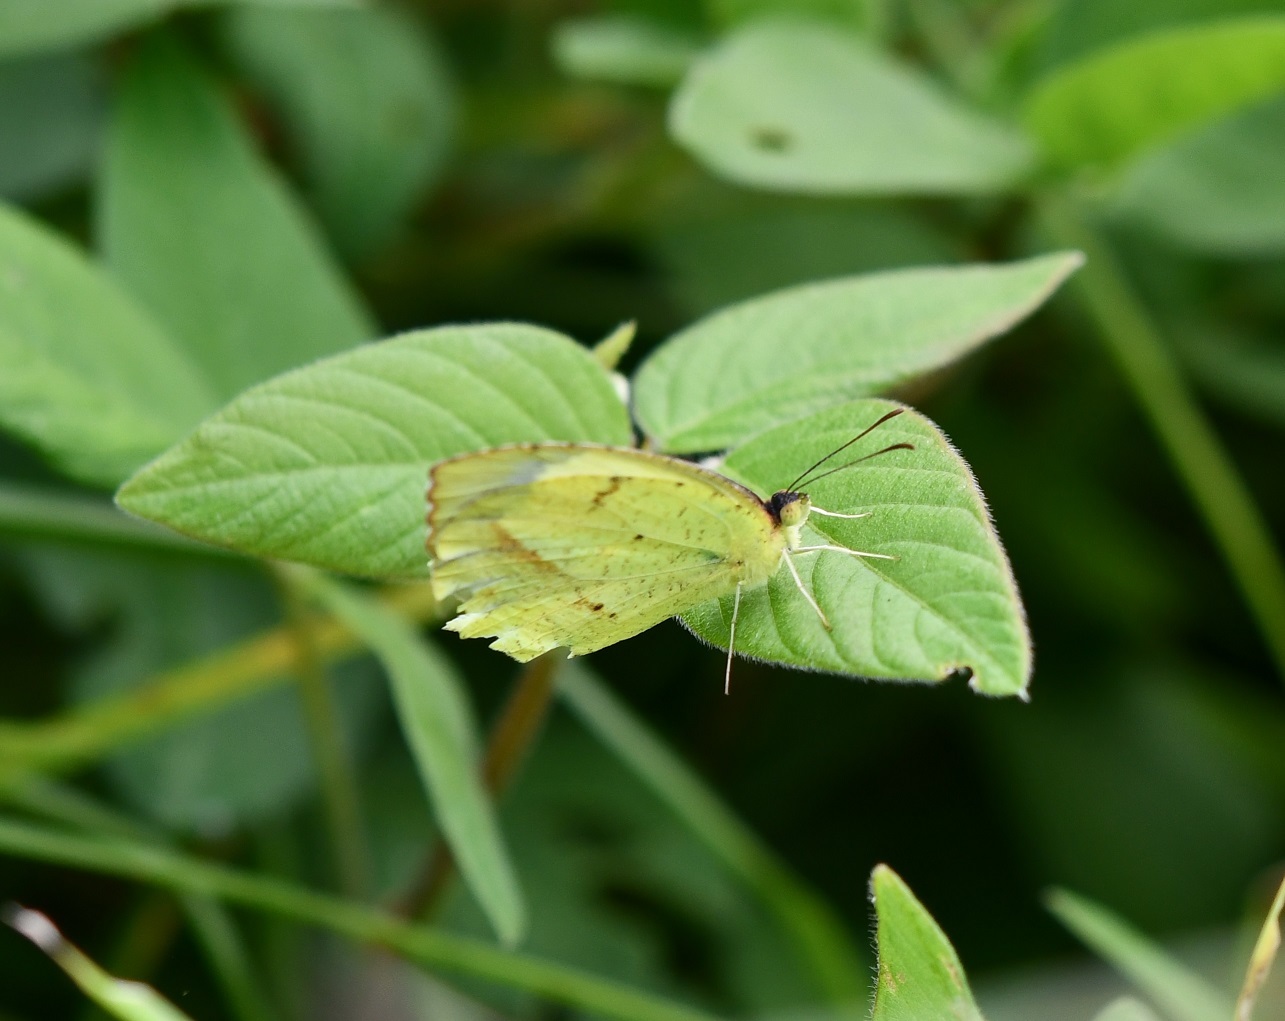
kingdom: Animalia
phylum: Arthropoda
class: Insecta
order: Lepidoptera
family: Pieridae
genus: Abaeis
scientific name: Abaeis mexicana
